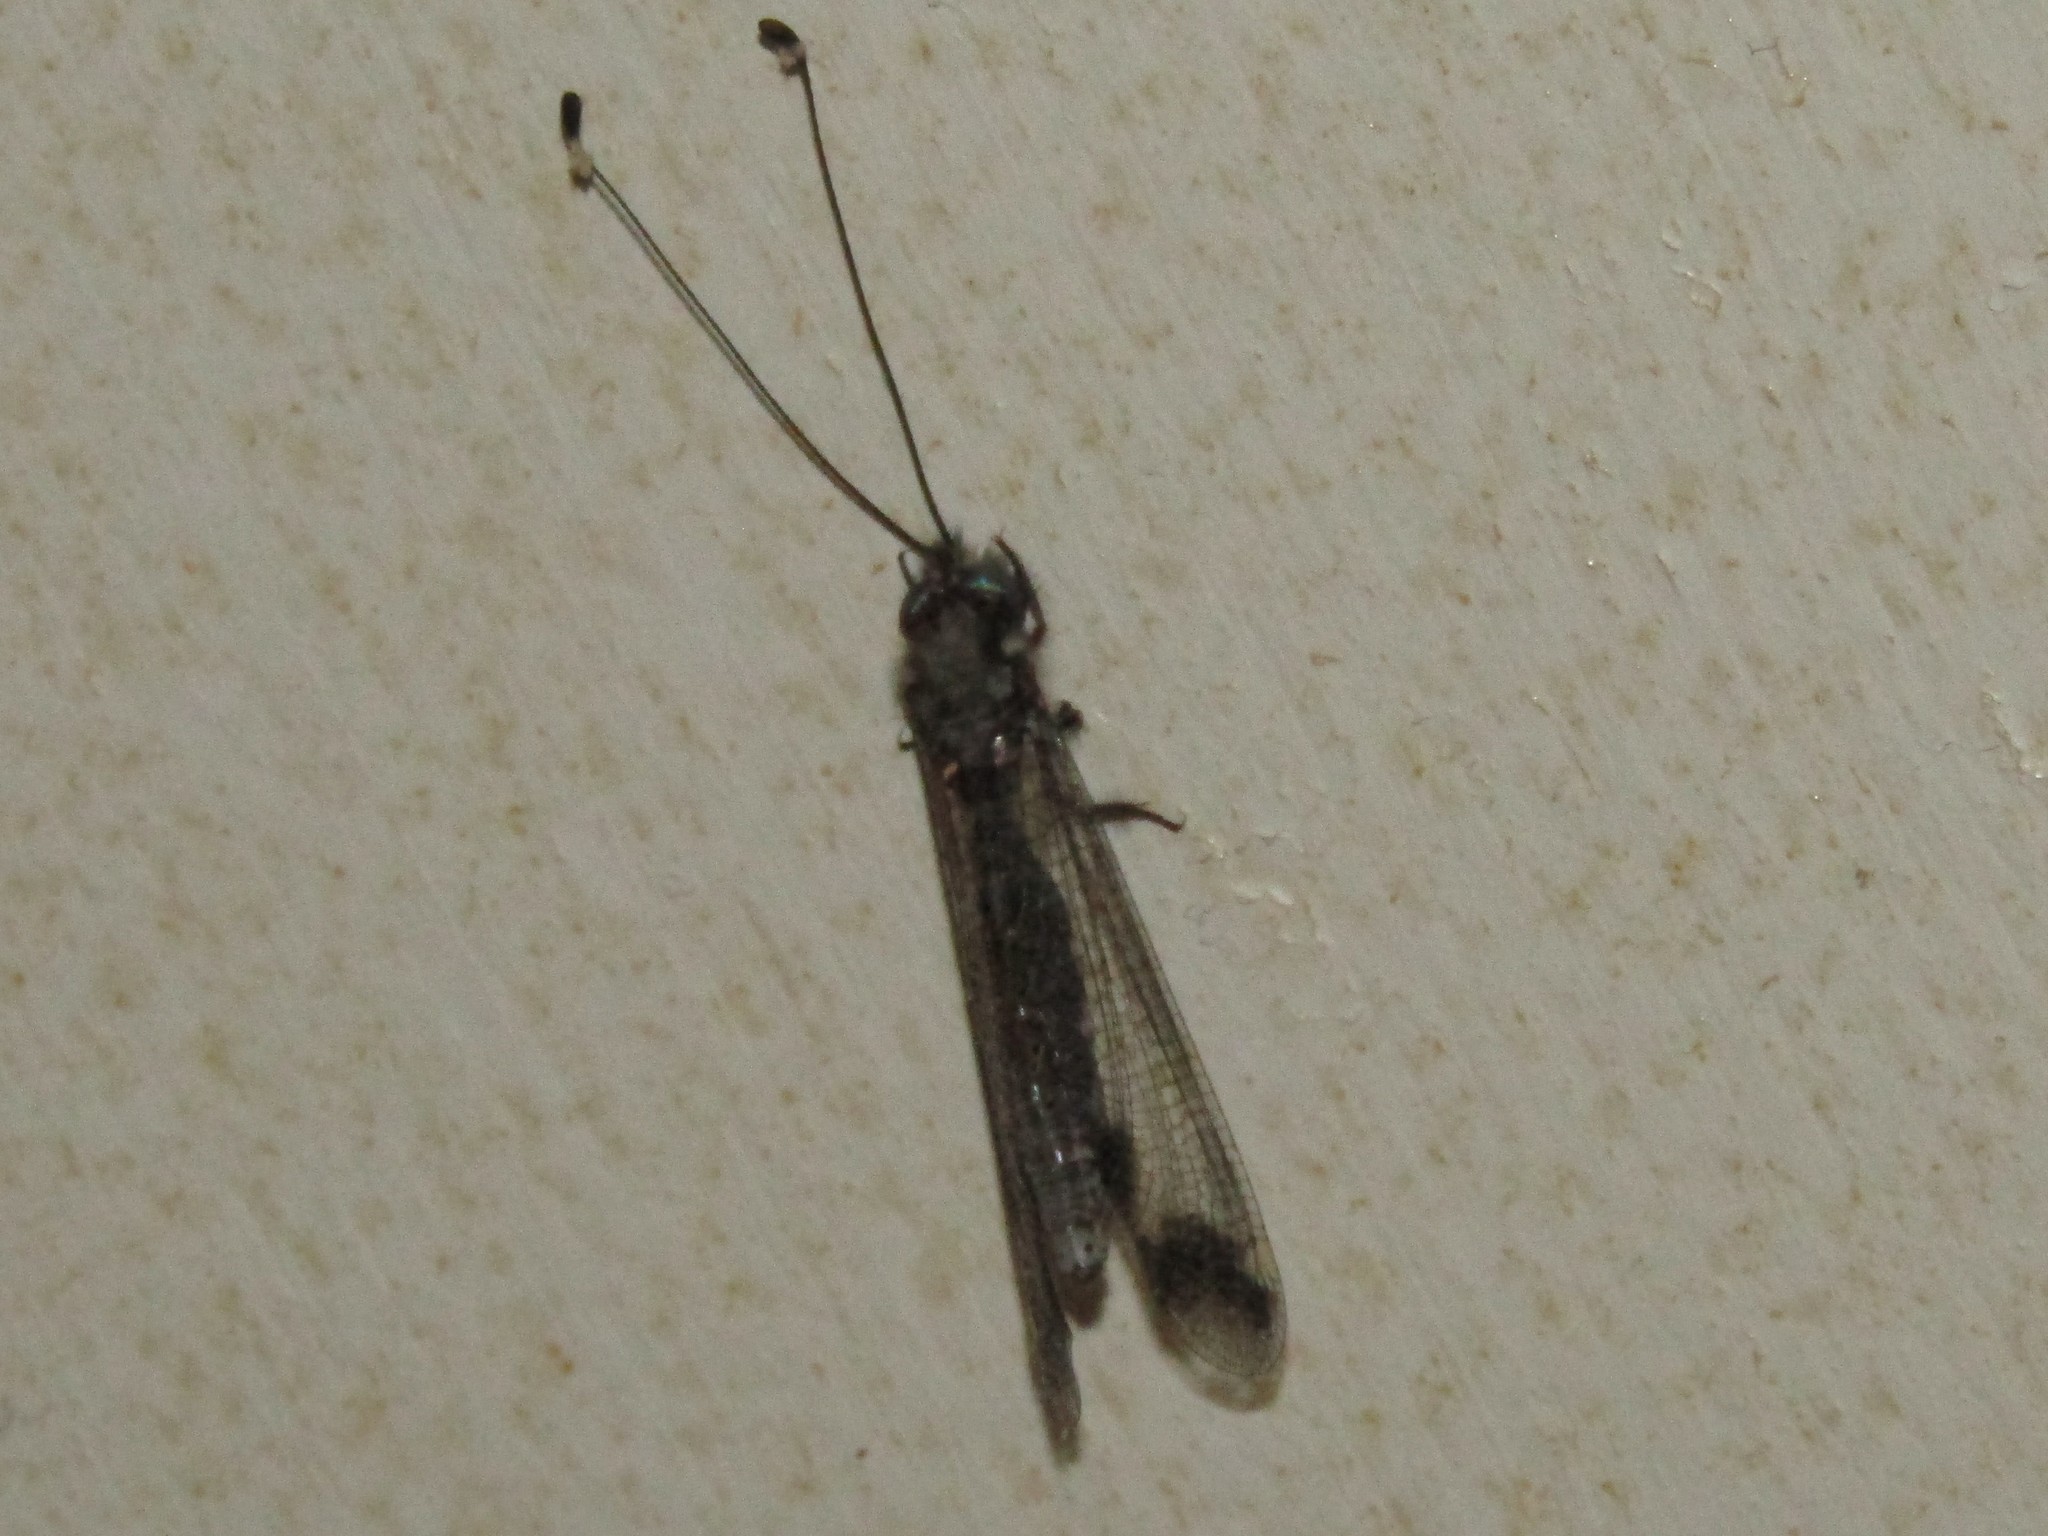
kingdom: Animalia
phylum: Arthropoda
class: Insecta
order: Neuroptera
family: Ascalaphidae
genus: Ululodes
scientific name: Ululodes quadripunctatus
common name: Four-spotted owlfly
